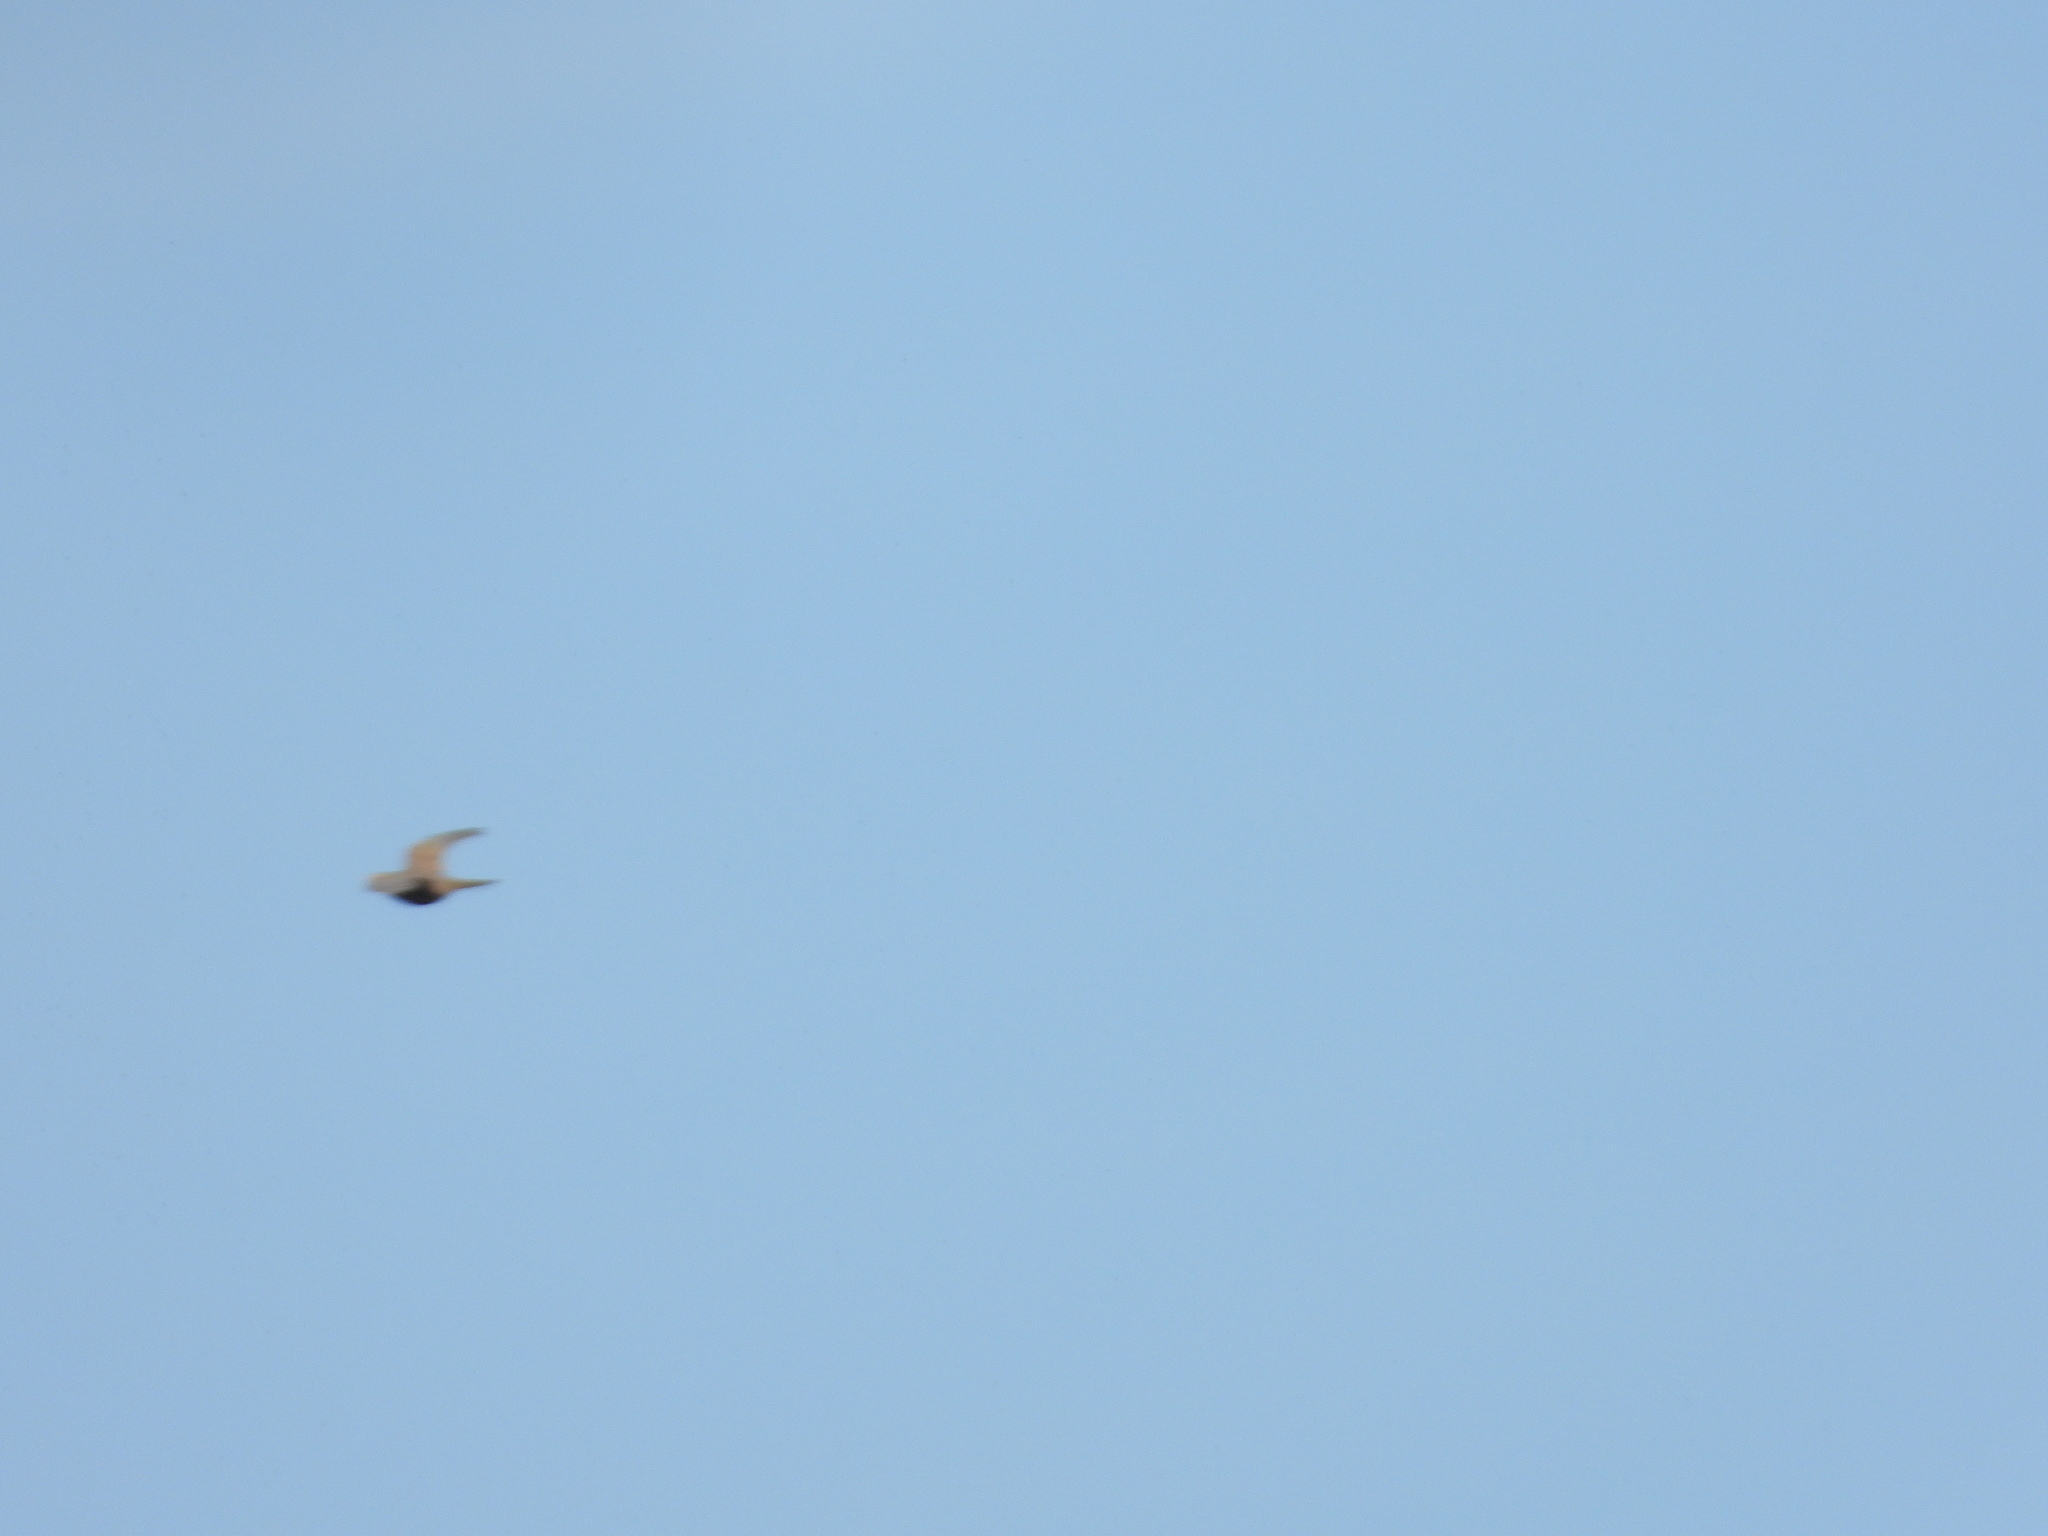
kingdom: Animalia
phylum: Chordata
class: Aves
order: Columbiformes
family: Columbidae
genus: Zenaida
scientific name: Zenaida macroura
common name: Mourning dove
